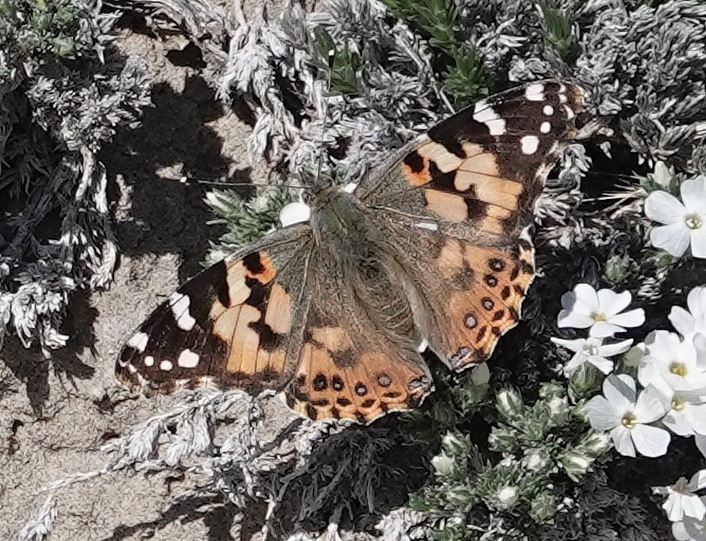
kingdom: Animalia
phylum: Arthropoda
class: Insecta
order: Lepidoptera
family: Nymphalidae
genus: Vanessa
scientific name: Vanessa cardui
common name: Painted lady
